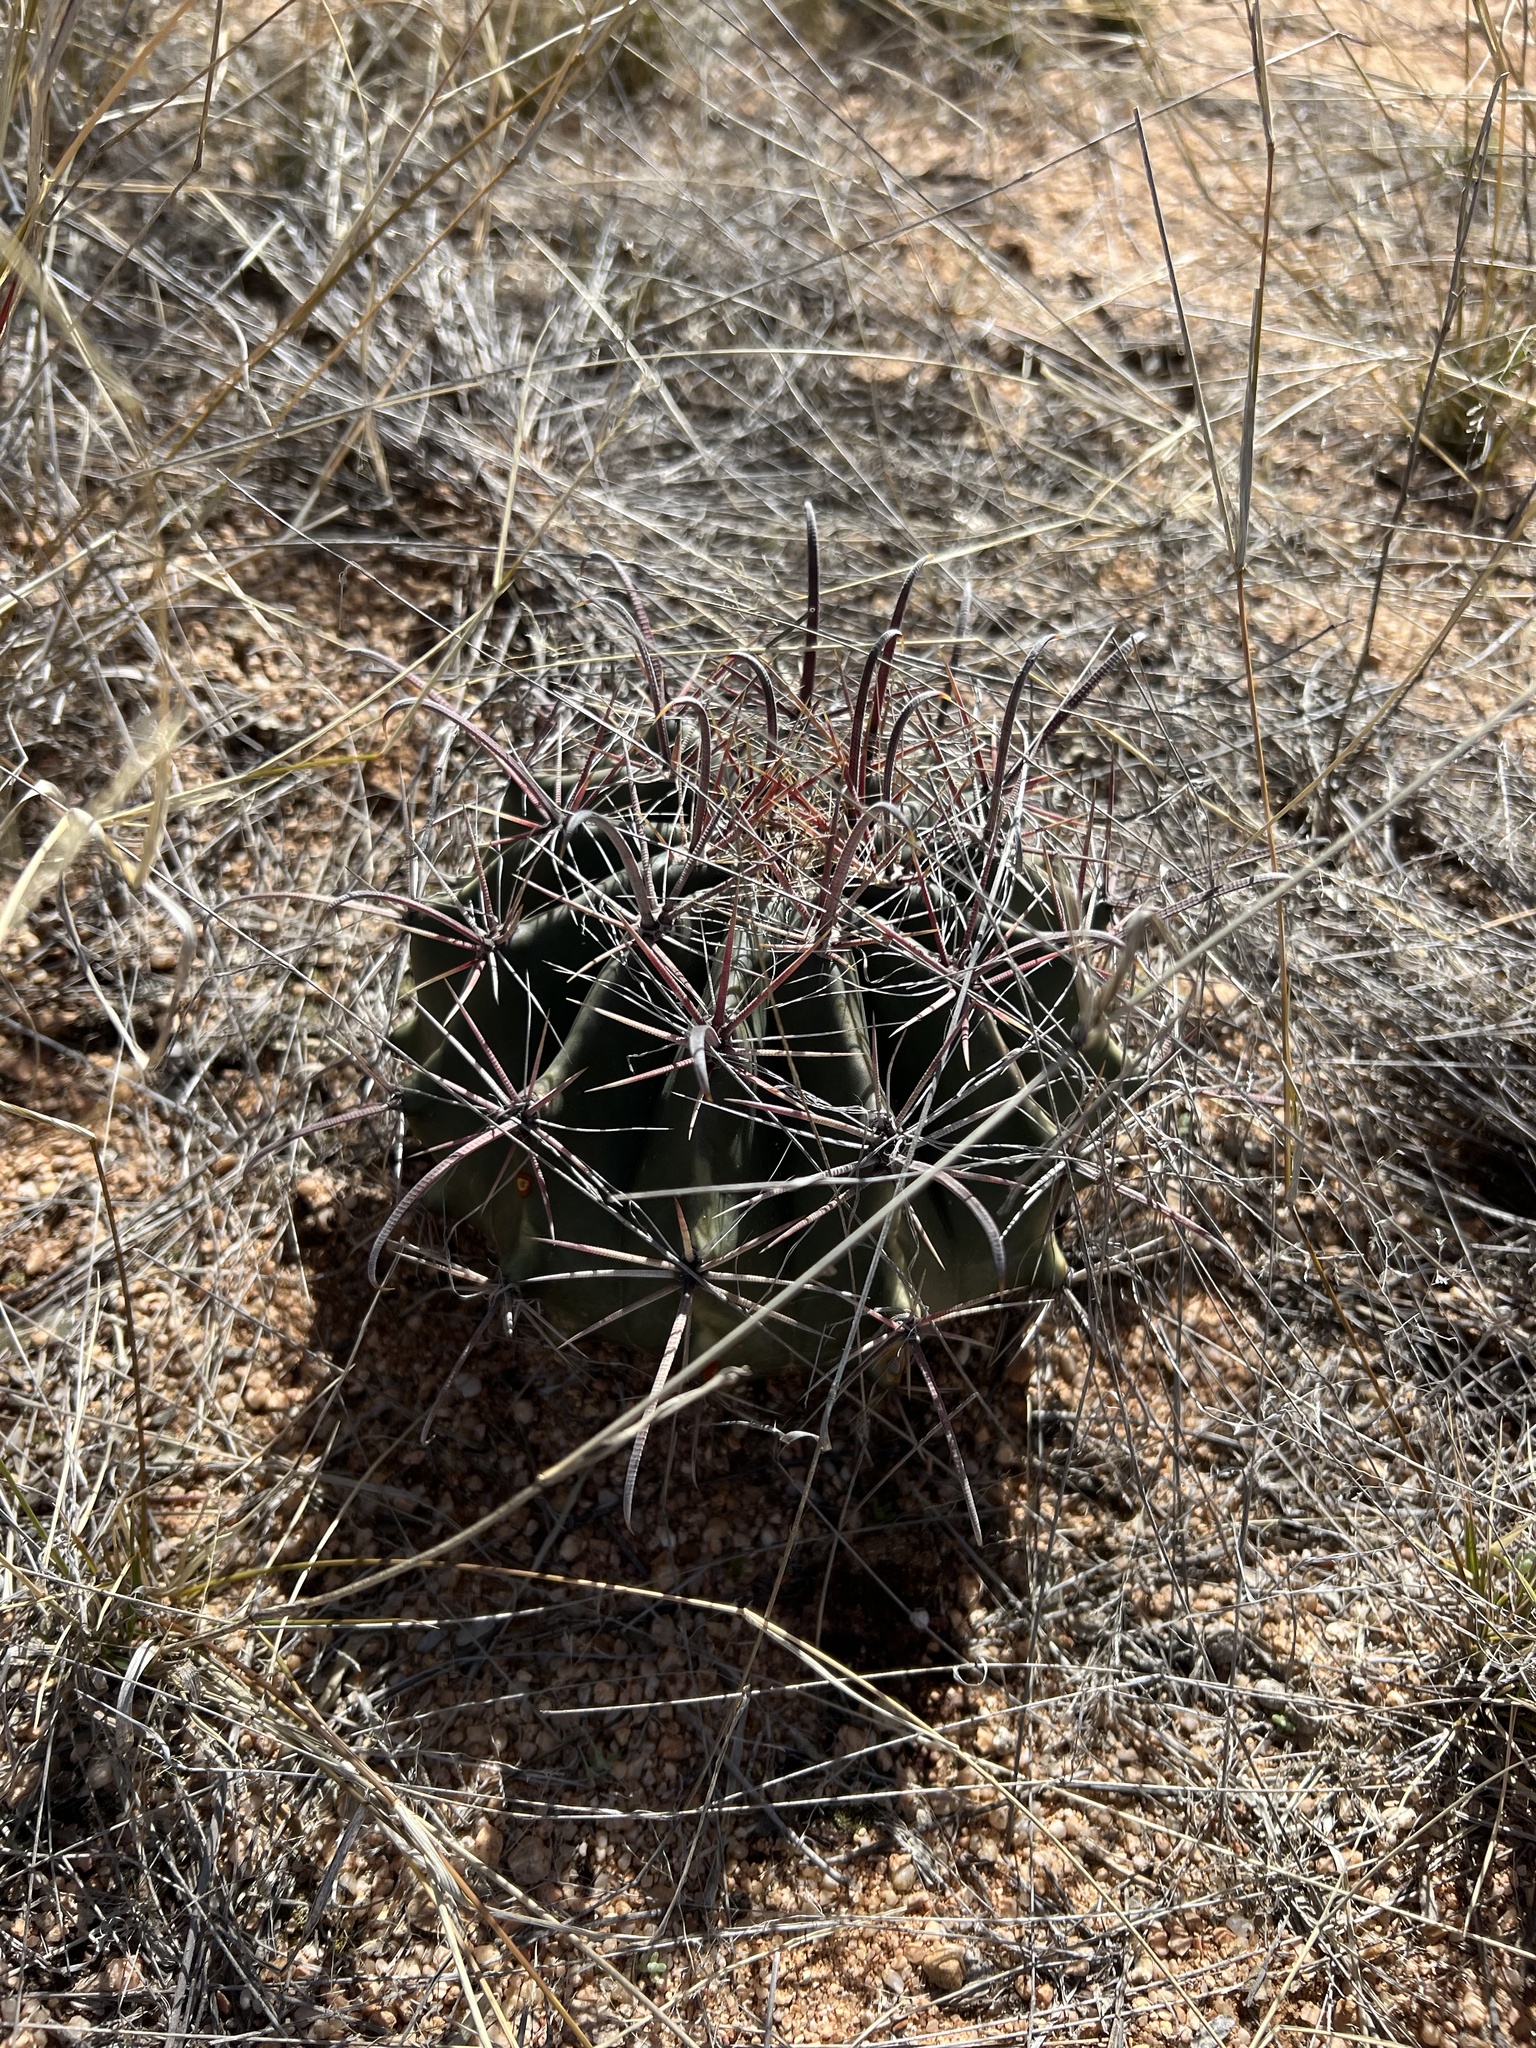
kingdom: Plantae
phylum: Tracheophyta
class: Magnoliopsida
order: Caryophyllales
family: Cactaceae
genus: Ferocactus
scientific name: Ferocactus wislizeni
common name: Candy barrel cactus
